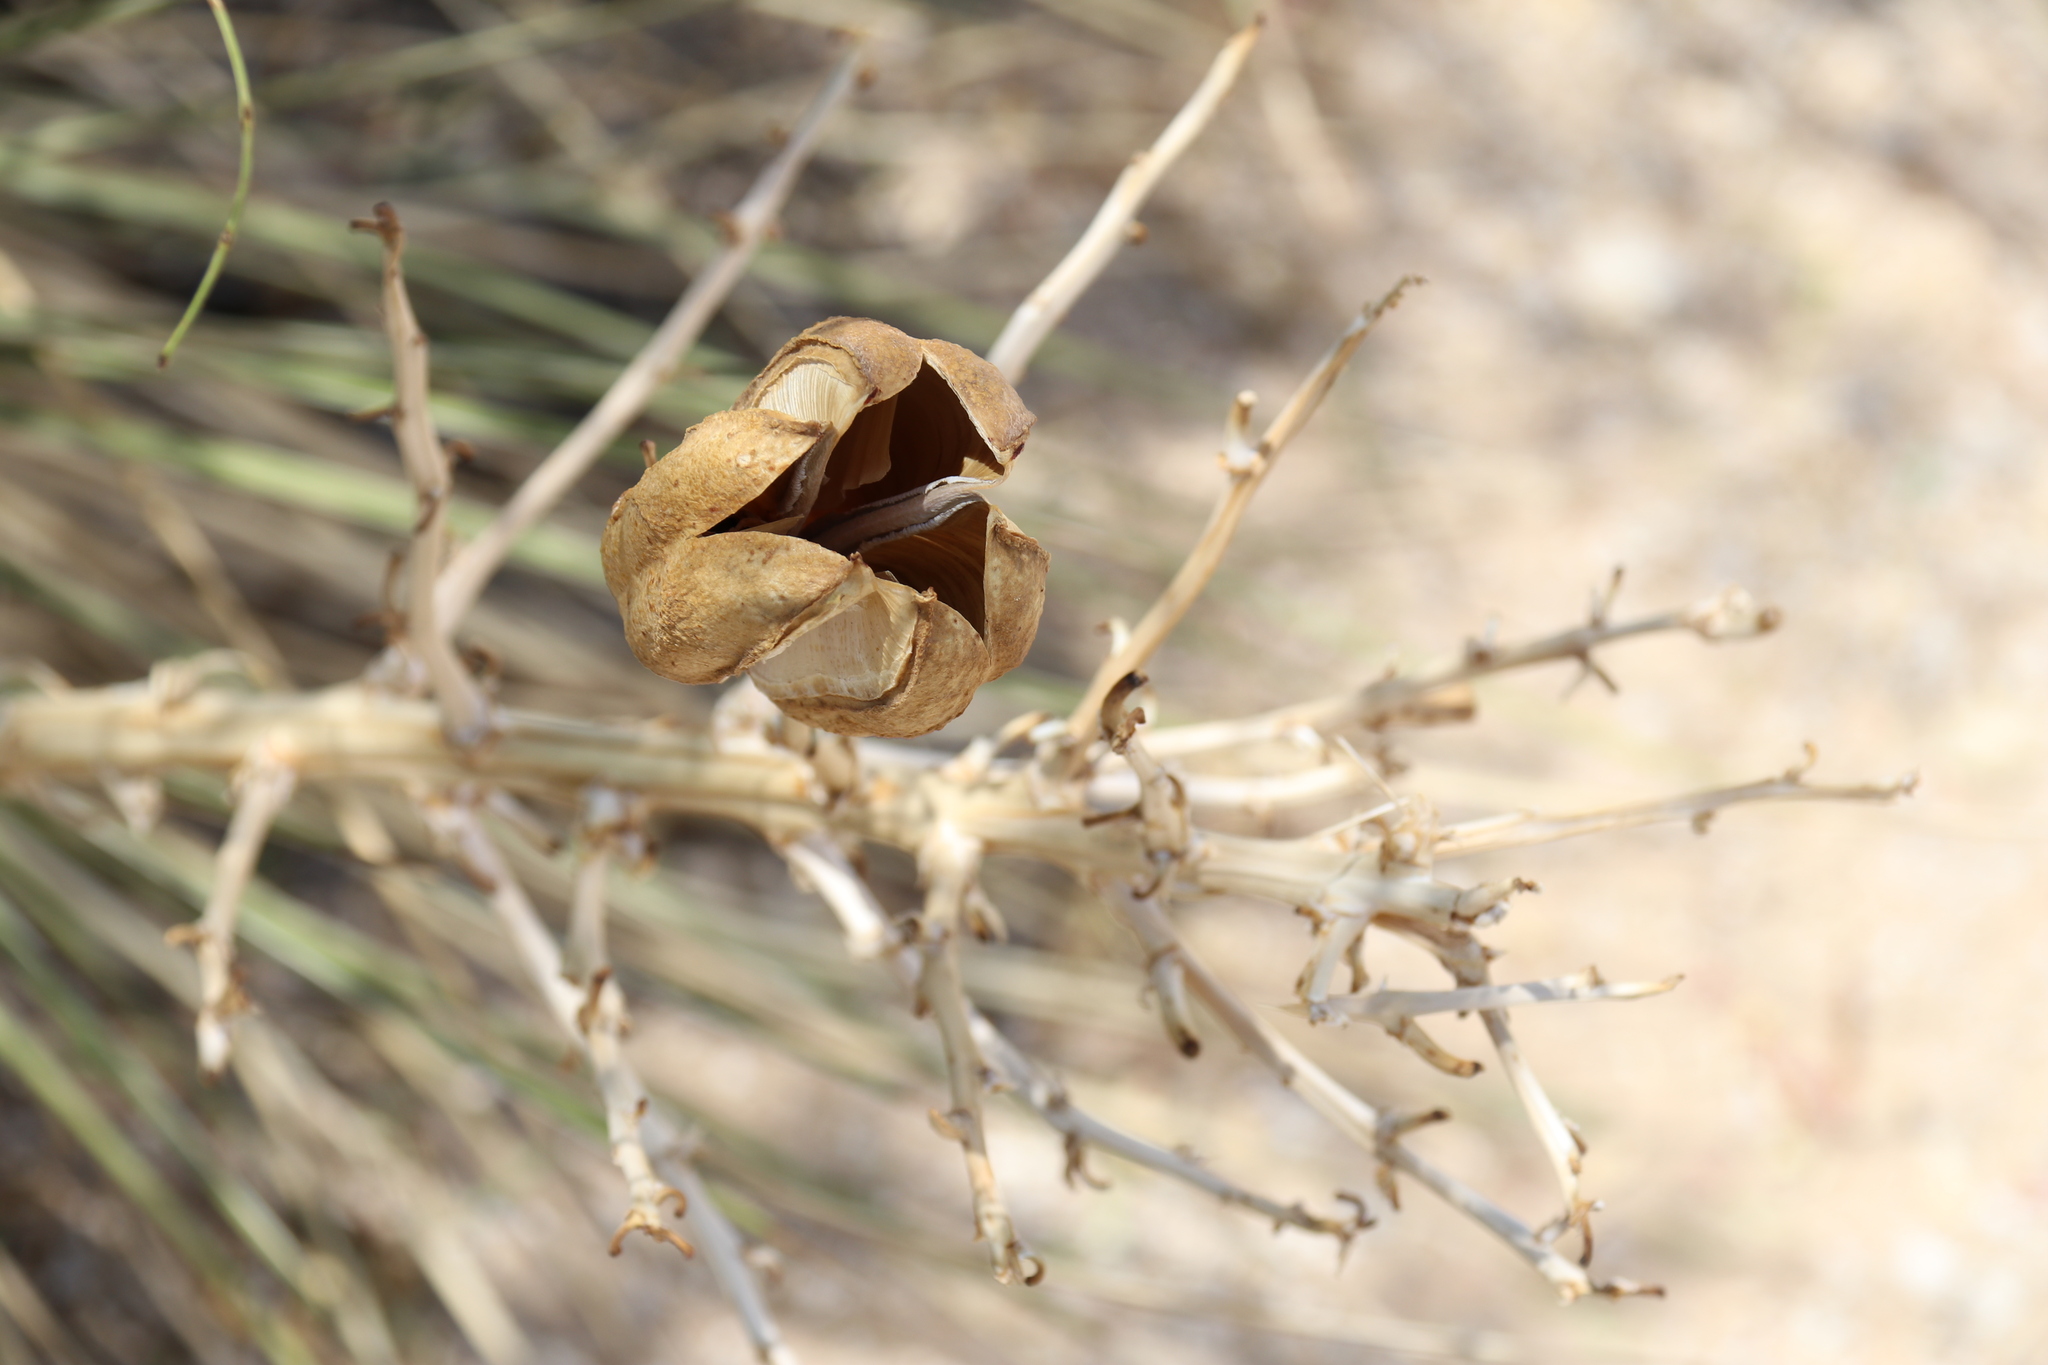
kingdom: Plantae
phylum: Tracheophyta
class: Liliopsida
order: Asparagales
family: Asparagaceae
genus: Yucca
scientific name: Yucca campestris
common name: Plains yucca
